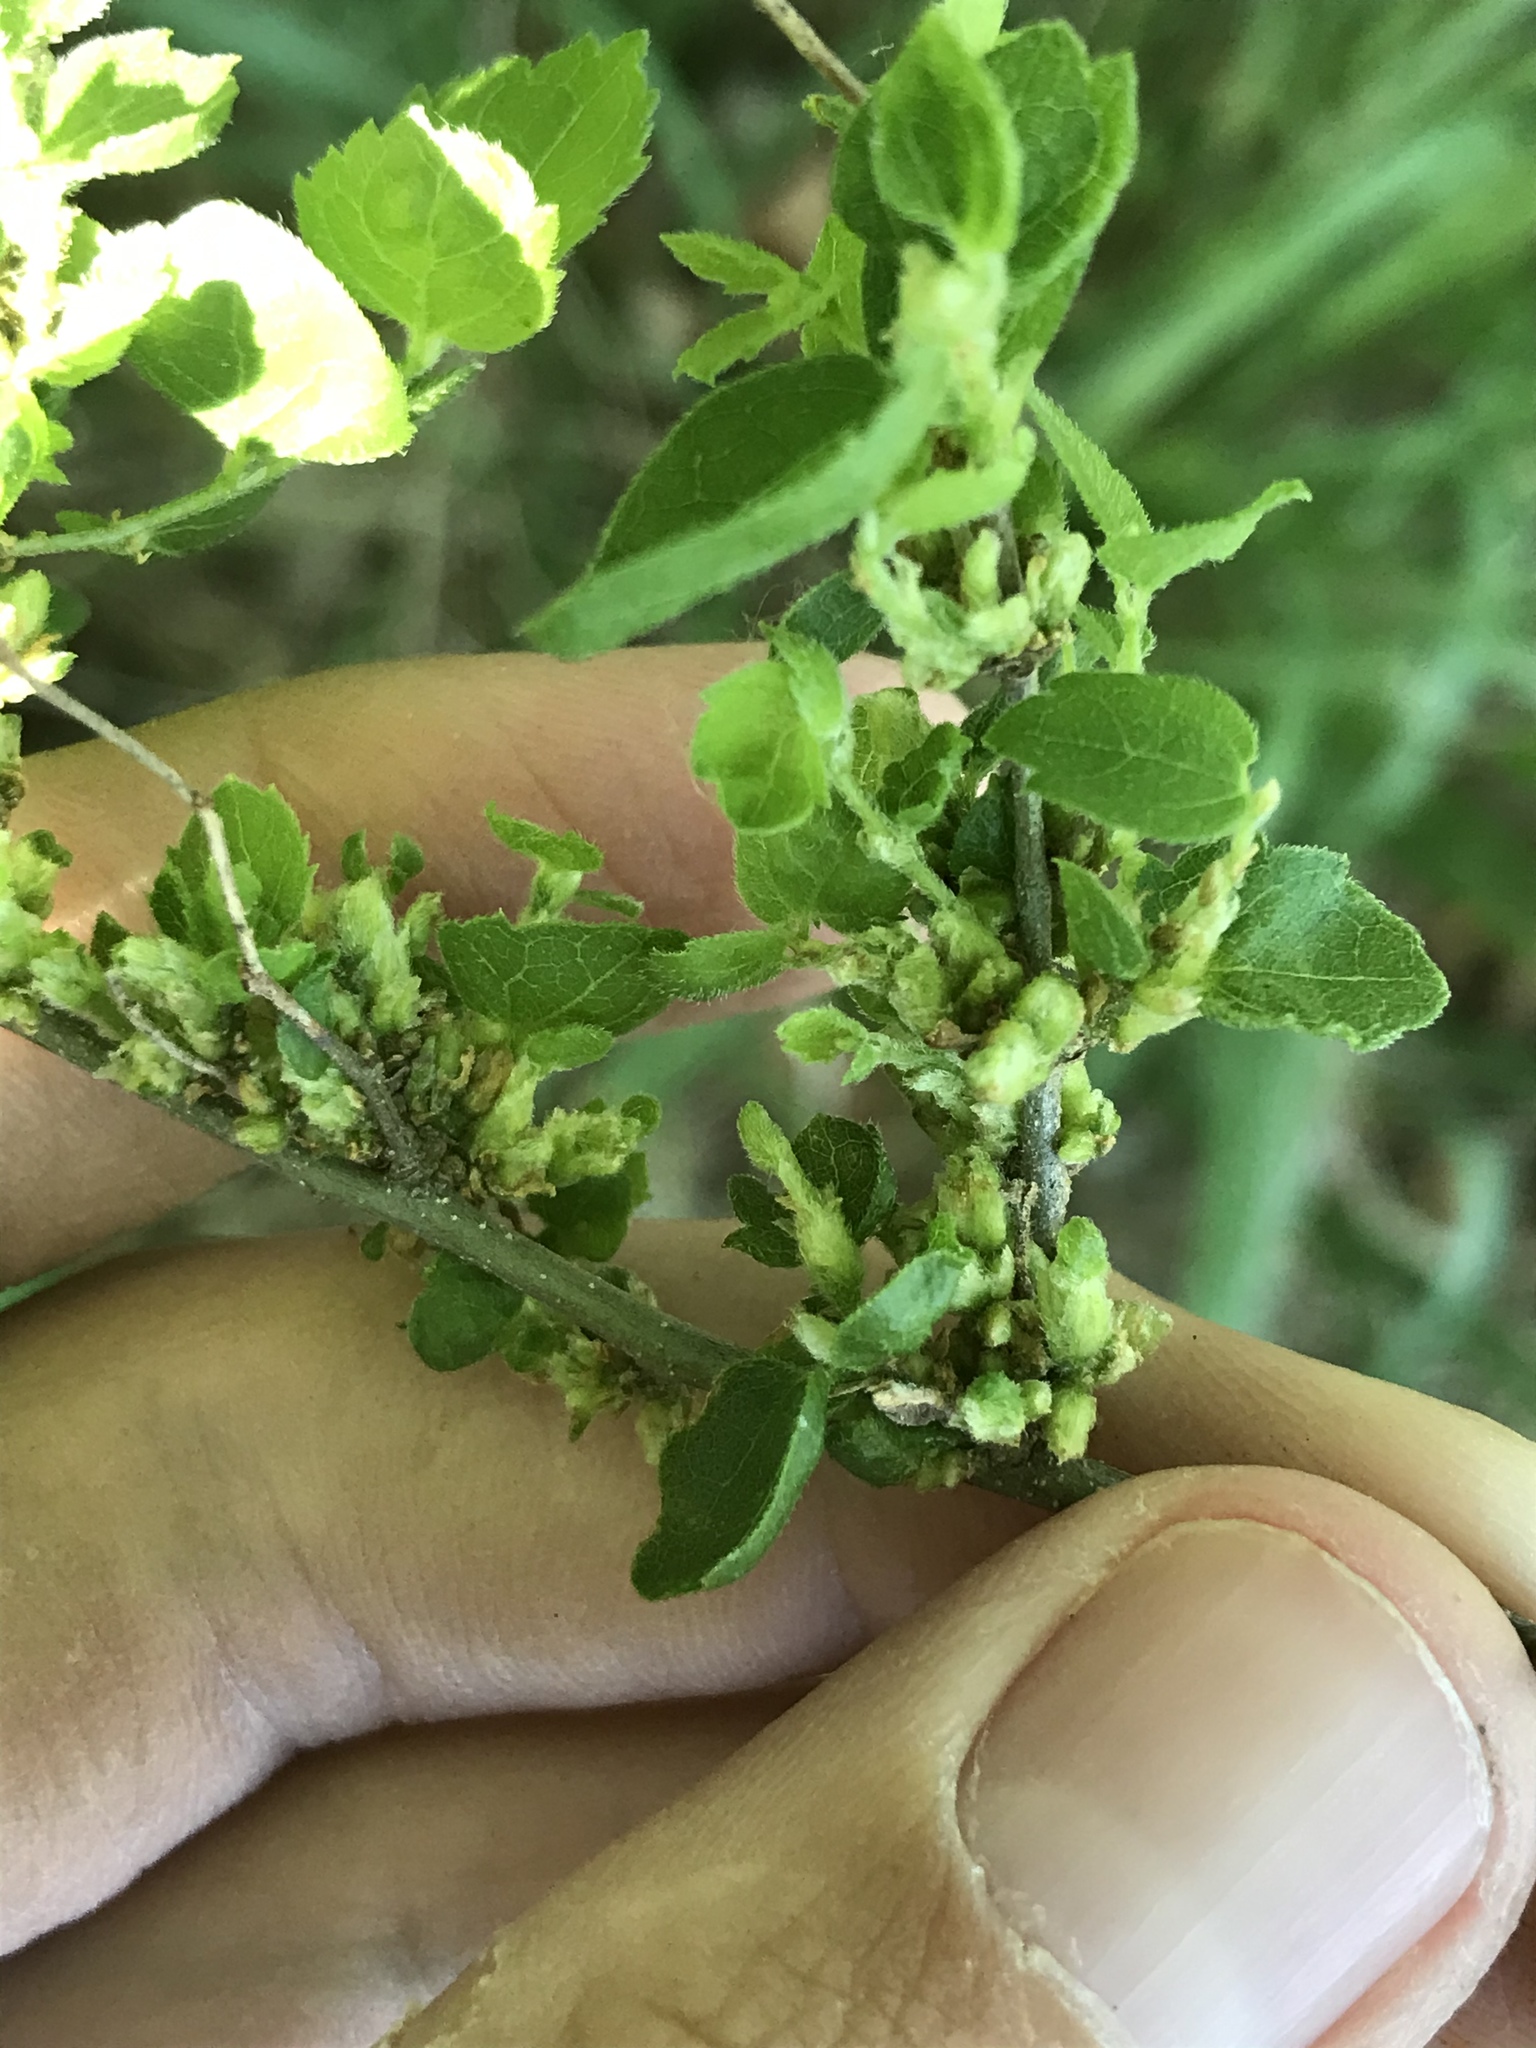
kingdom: Animalia
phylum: Arthropoda
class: Arachnida
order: Trombidiformes
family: Eriophyidae
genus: Aceria
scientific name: Aceria
